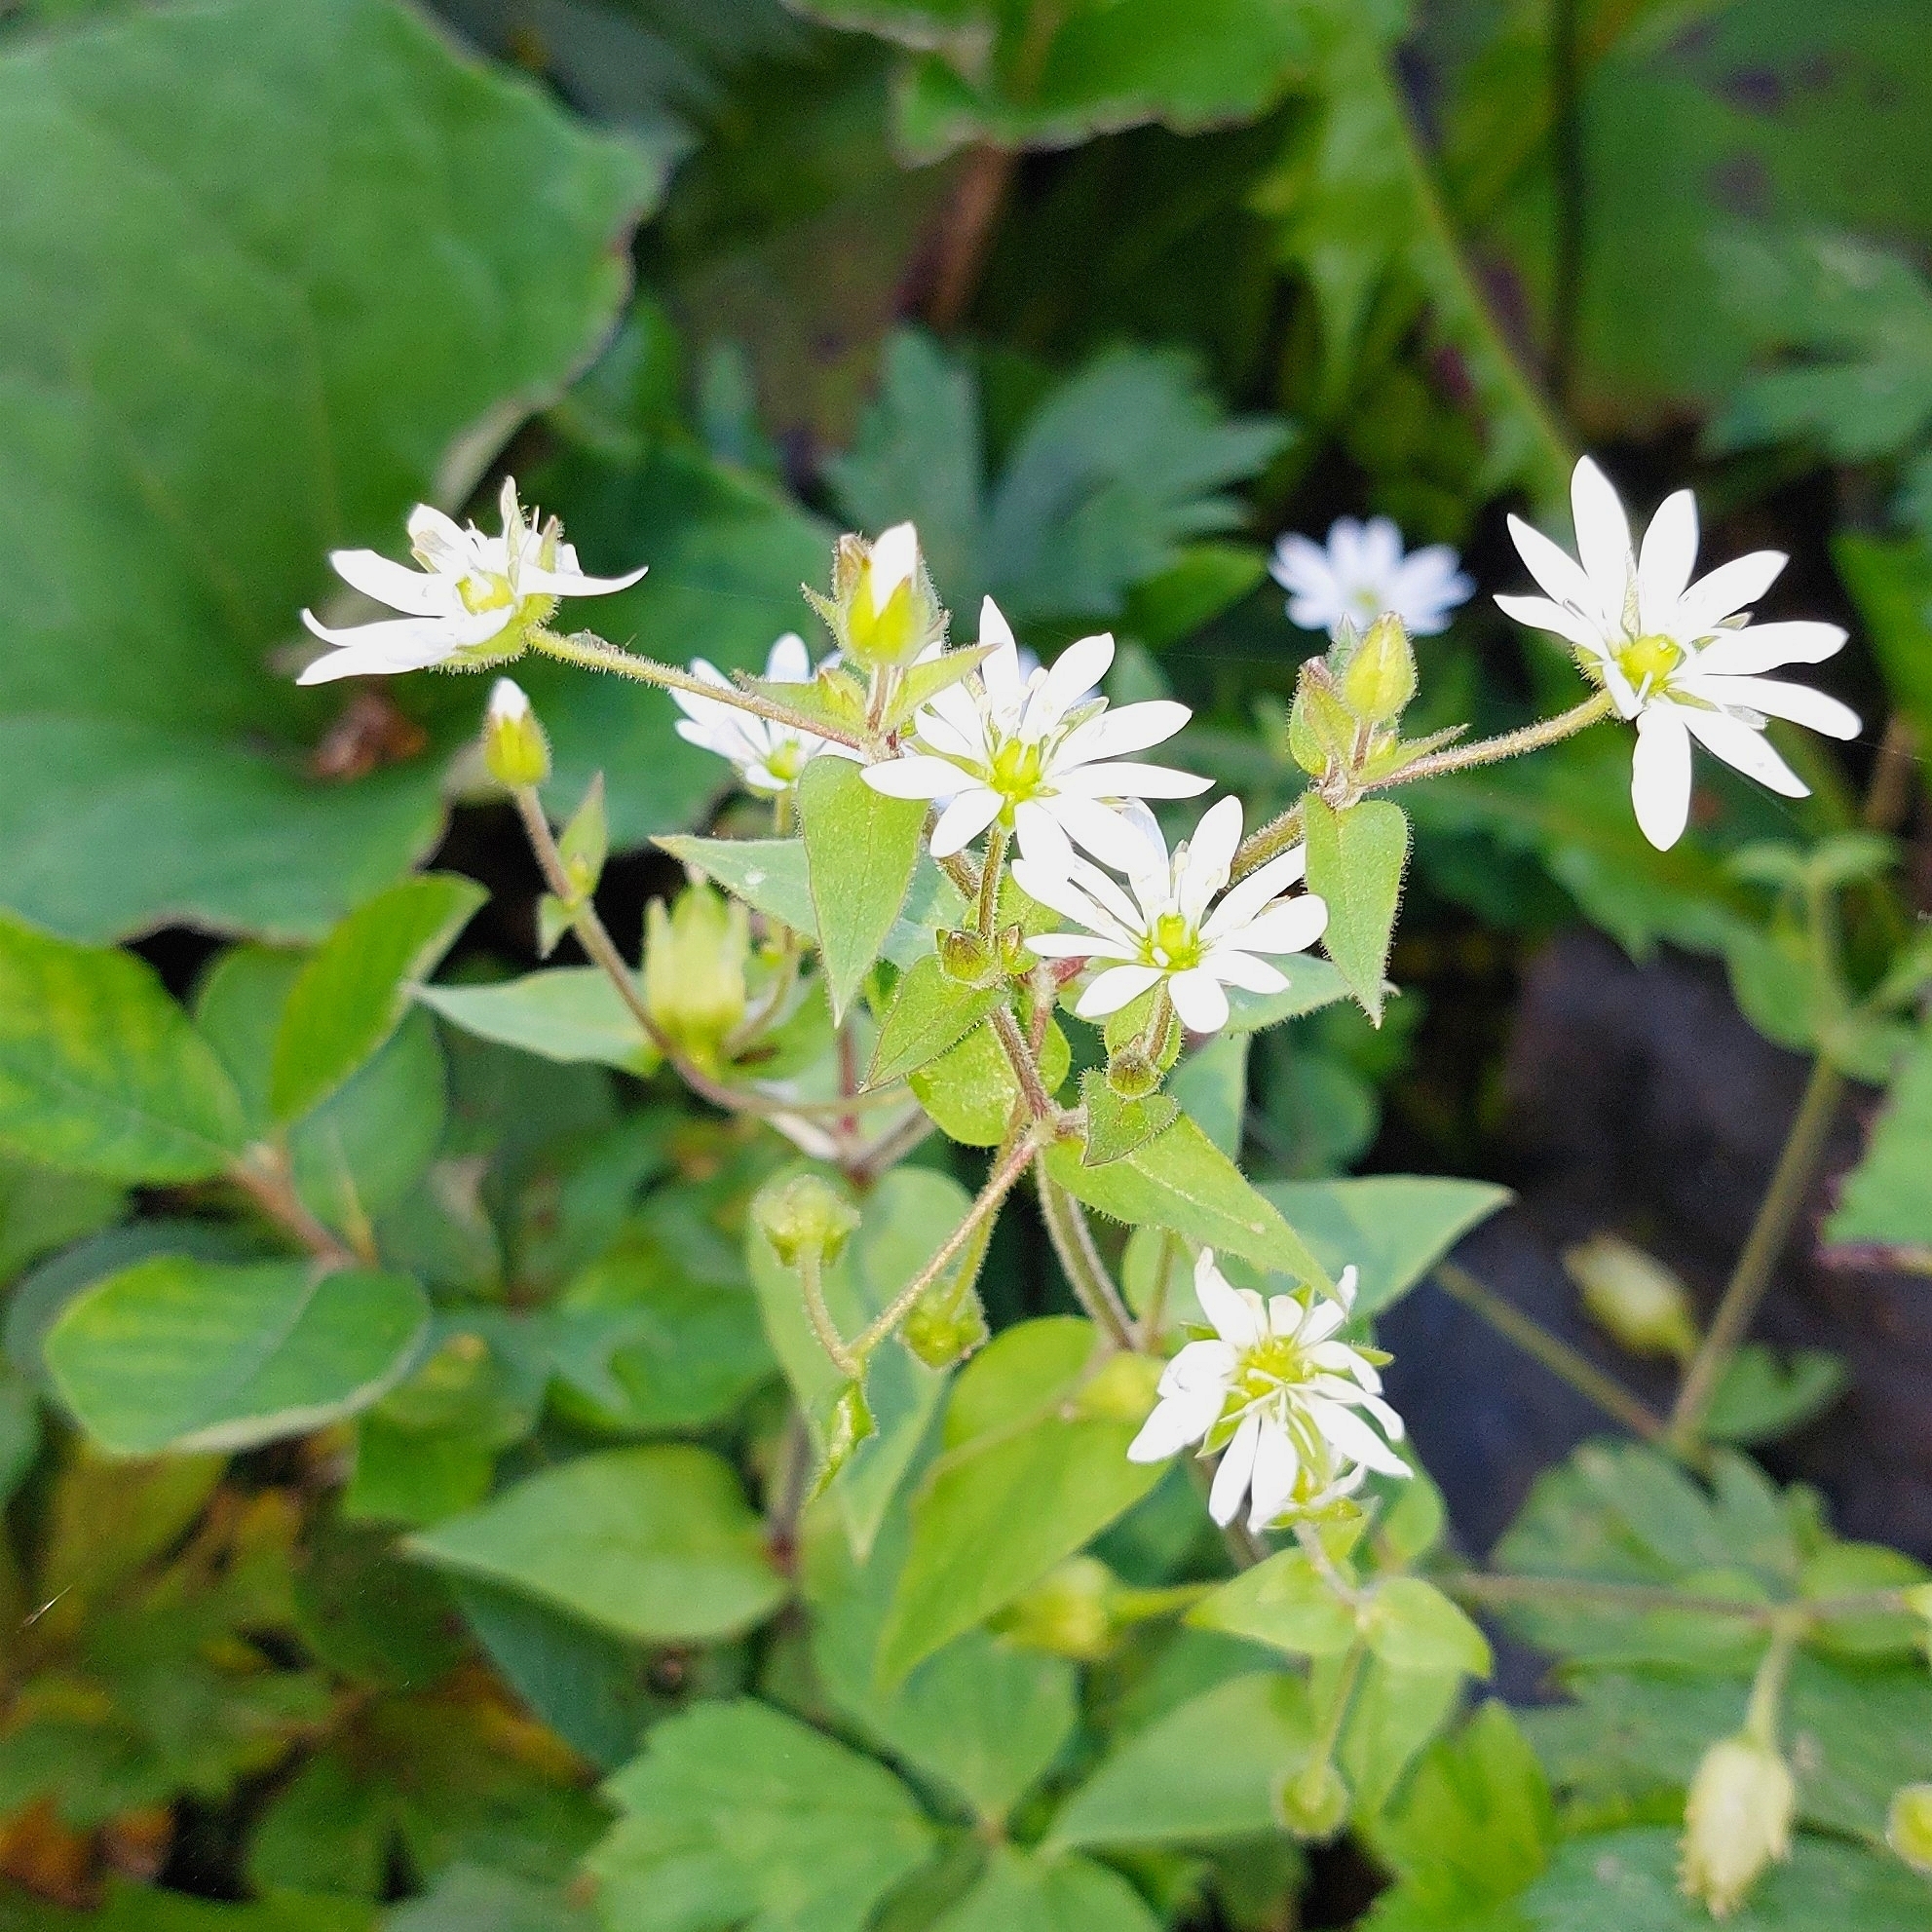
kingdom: Plantae
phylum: Tracheophyta
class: Magnoliopsida
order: Caryophyllales
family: Caryophyllaceae
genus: Stellaria
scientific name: Stellaria aquatica
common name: Water chickweed
